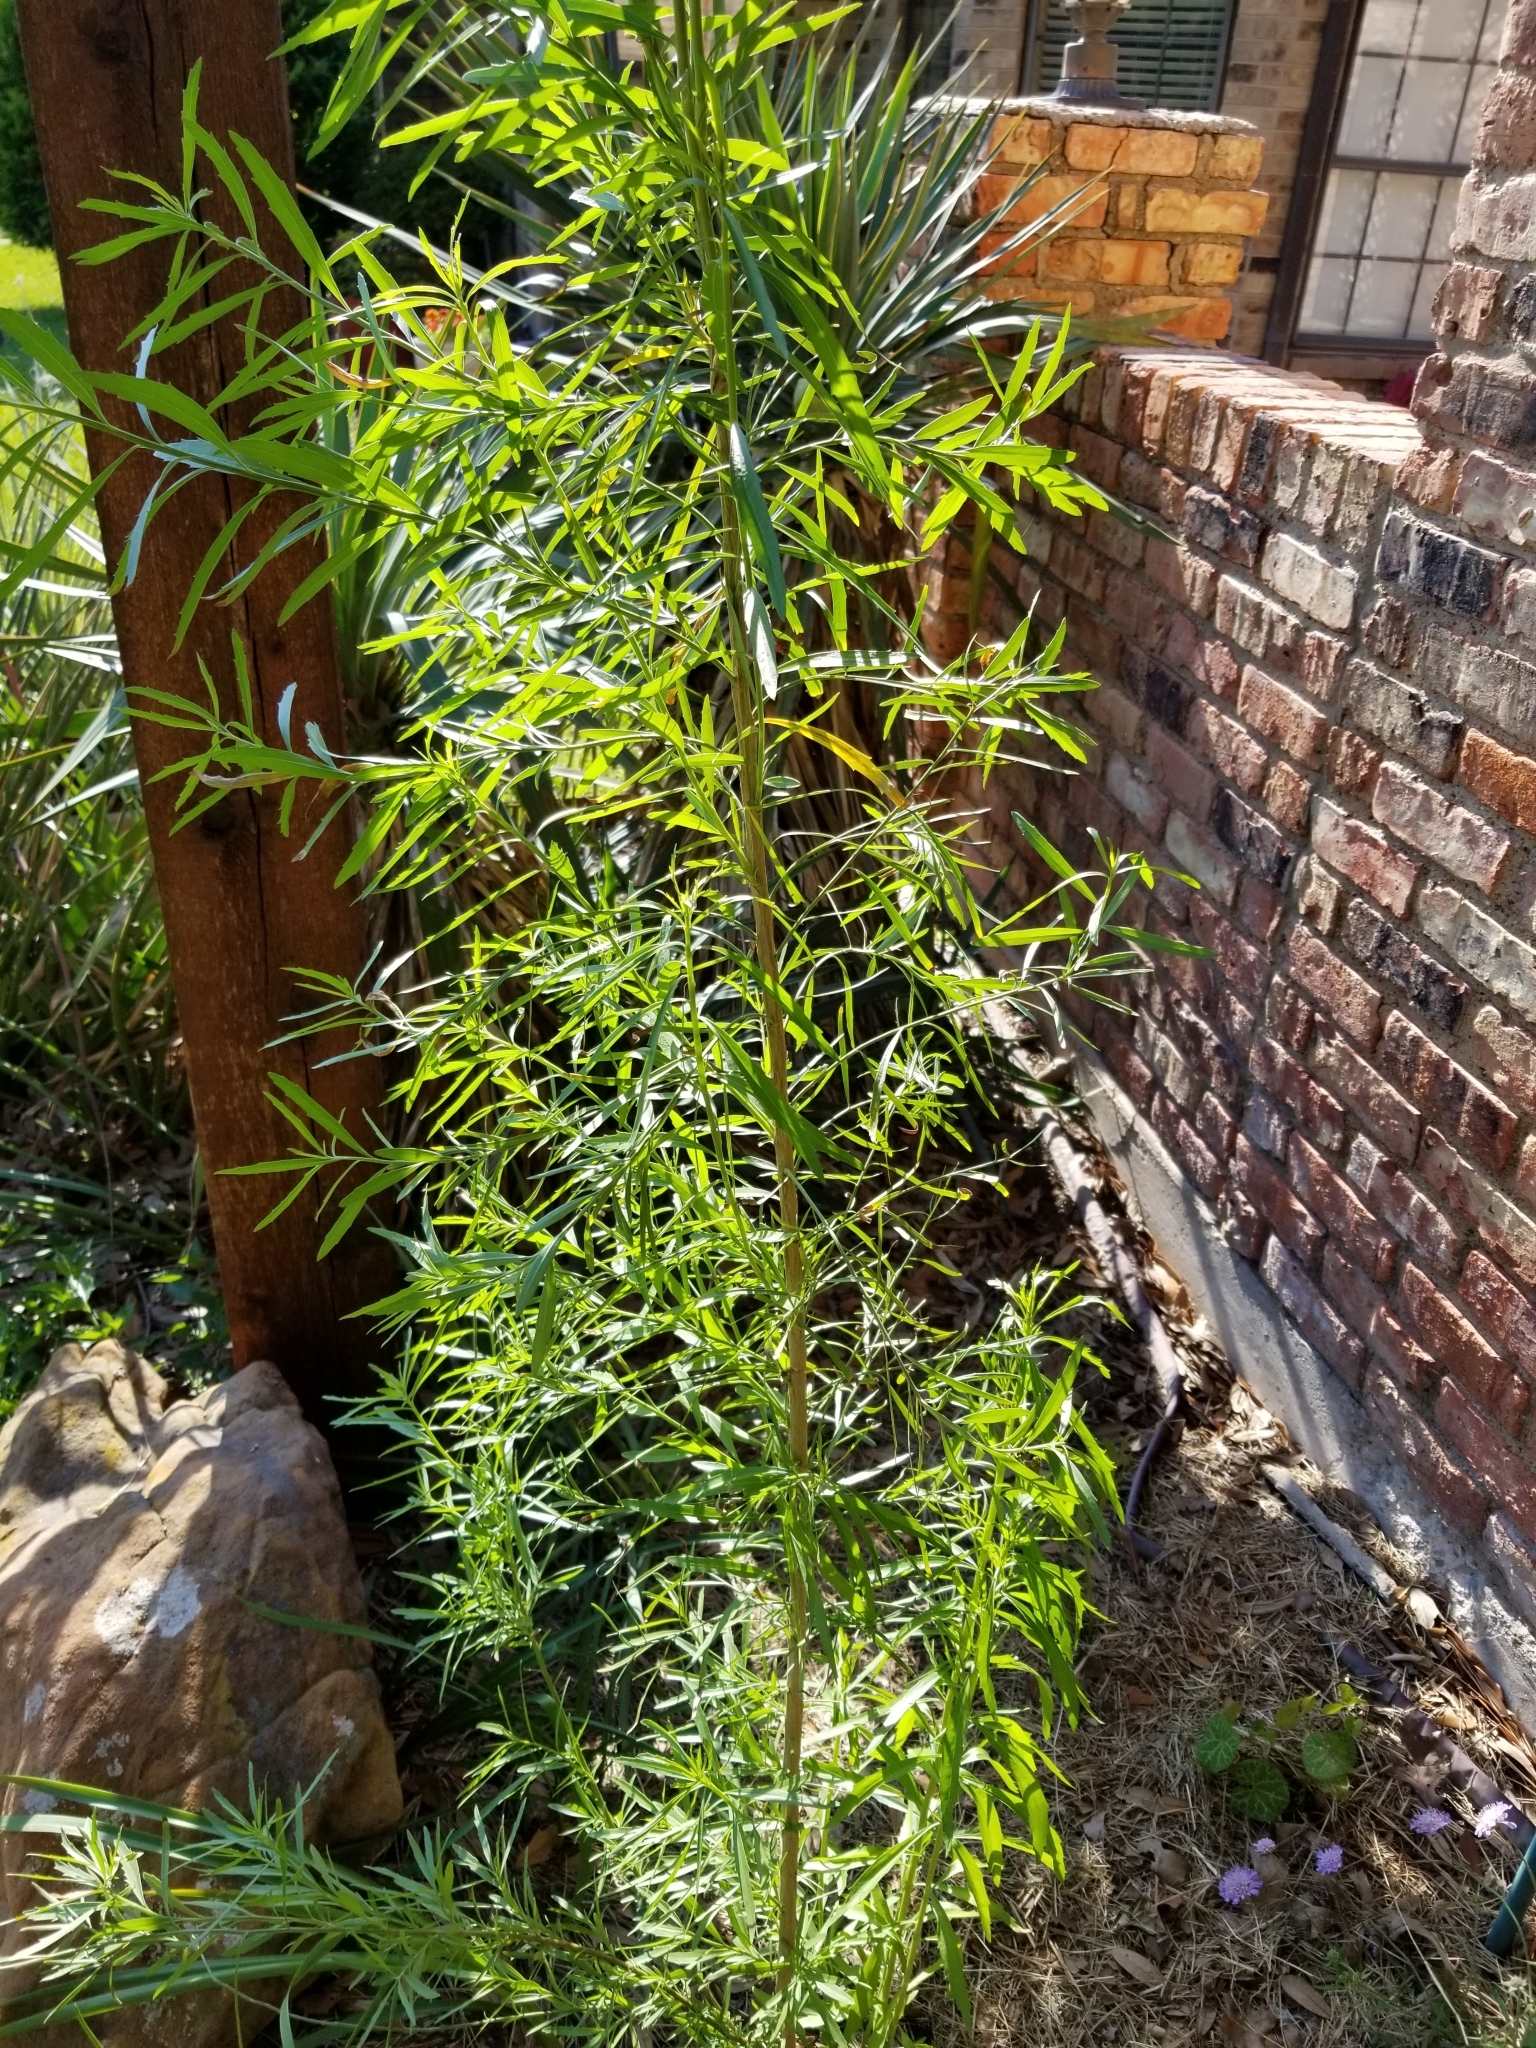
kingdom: Plantae
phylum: Tracheophyta
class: Magnoliopsida
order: Asterales
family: Asteraceae
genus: Baccharis
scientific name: Baccharis neglecta
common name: Roosevelt-weed
